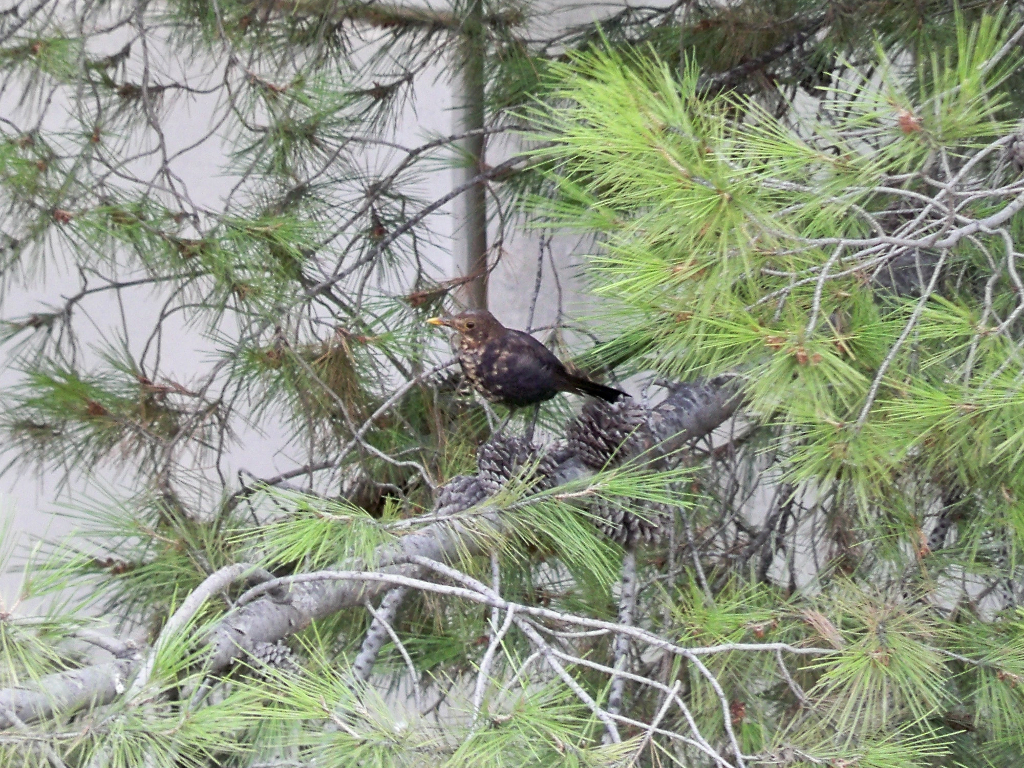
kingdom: Animalia
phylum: Chordata
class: Aves
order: Passeriformes
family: Turdidae
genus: Turdus
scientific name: Turdus merula
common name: Common blackbird
